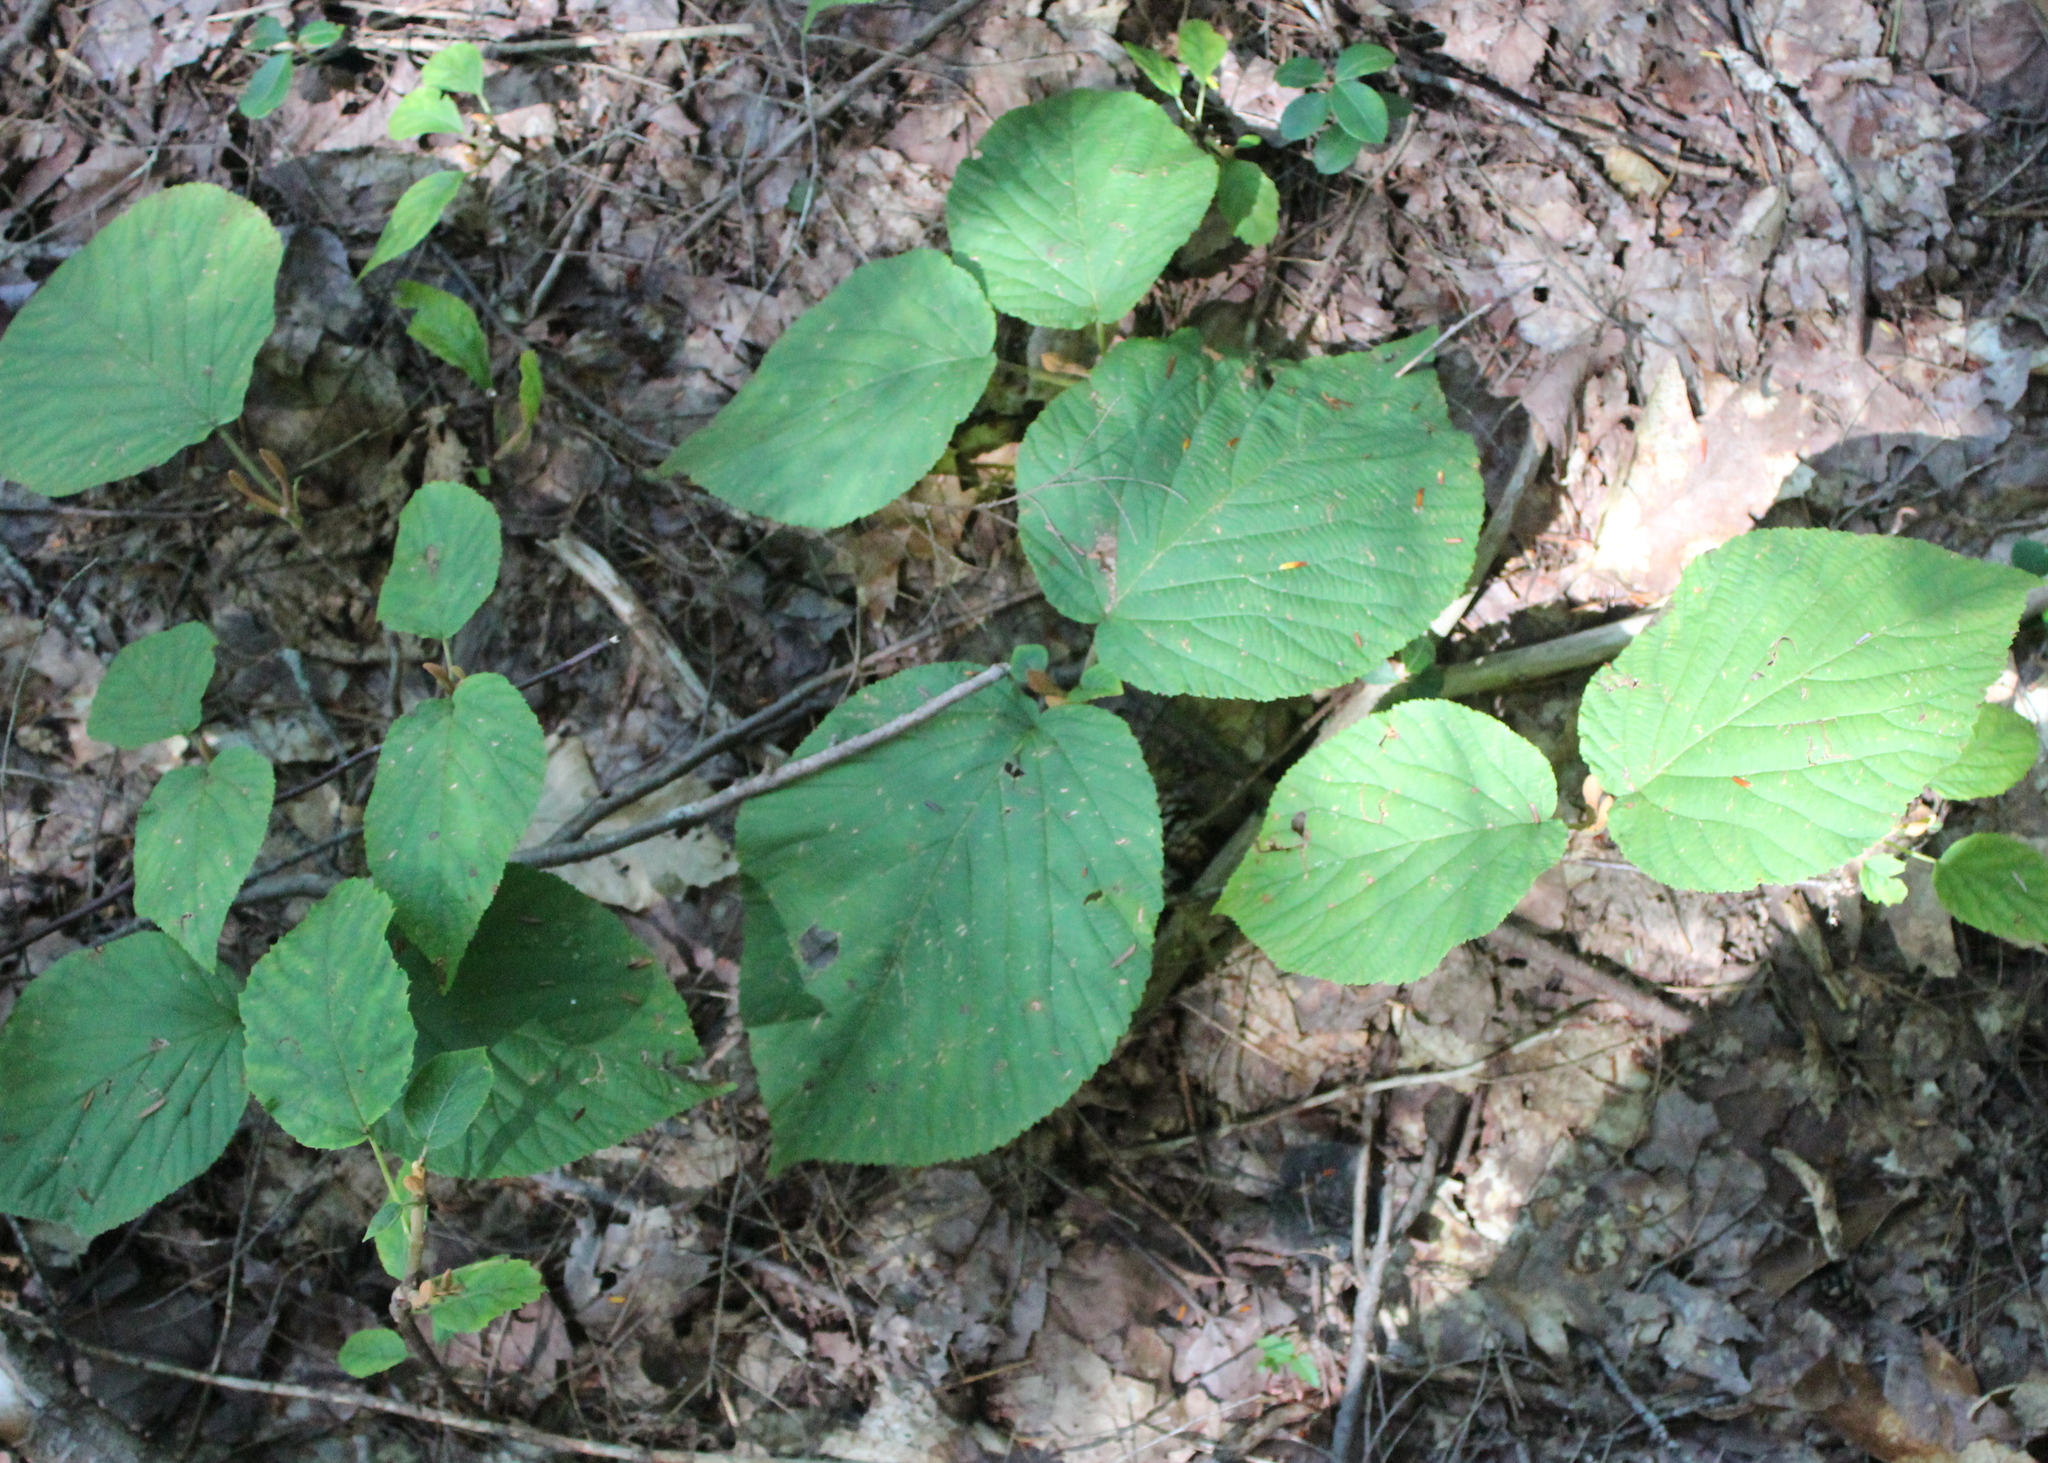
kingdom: Plantae
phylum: Tracheophyta
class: Magnoliopsida
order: Dipsacales
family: Viburnaceae
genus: Viburnum
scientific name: Viburnum lantanoides
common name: Hobblebush
